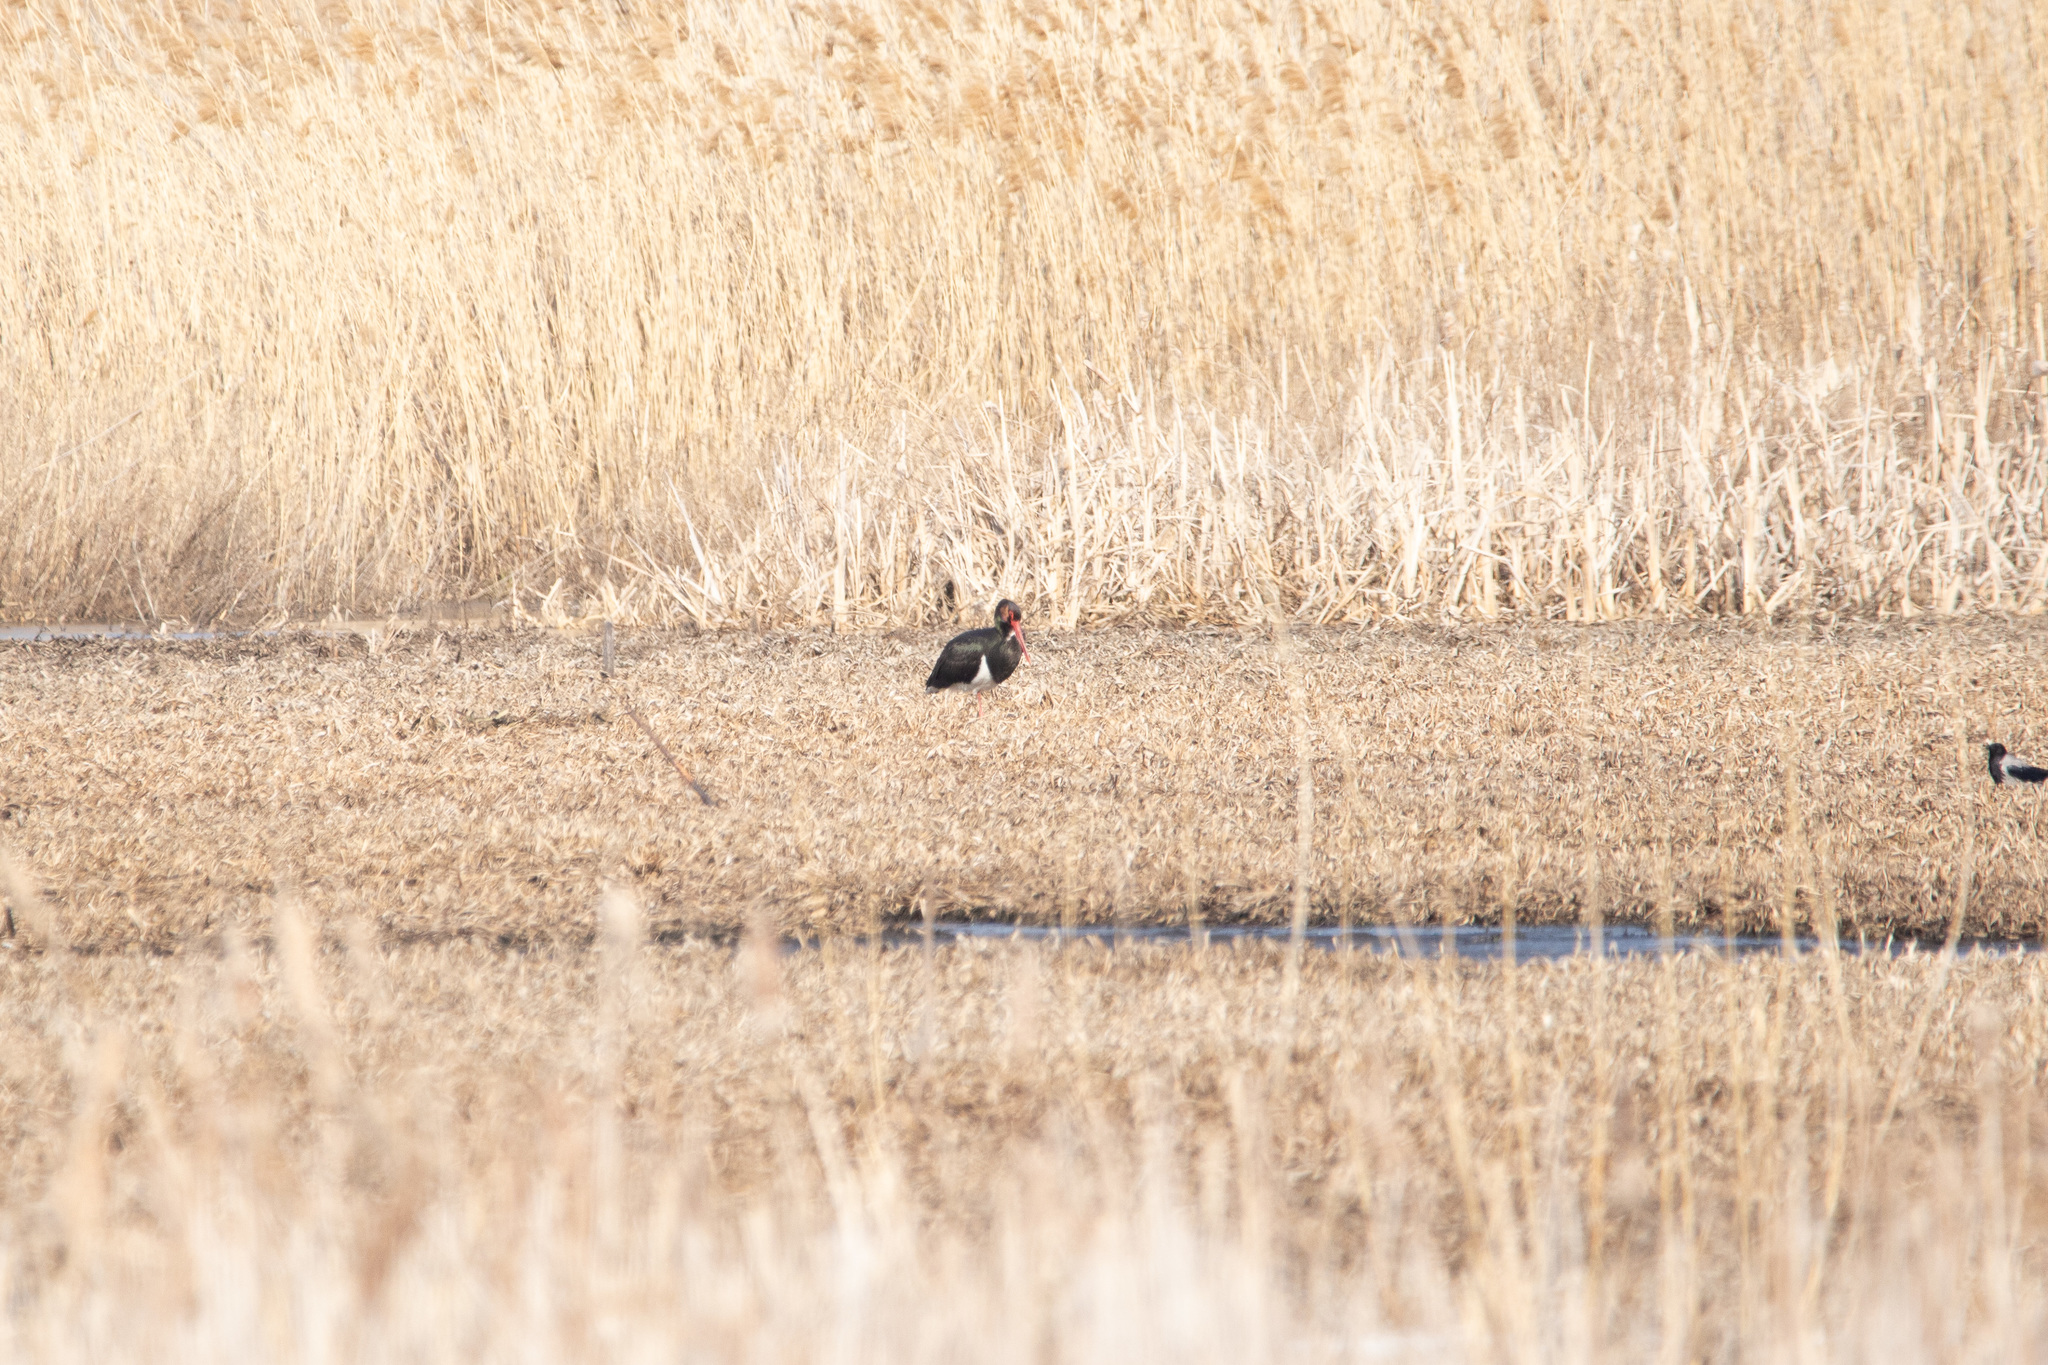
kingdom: Animalia
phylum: Chordata
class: Aves
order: Ciconiiformes
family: Ciconiidae
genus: Ciconia
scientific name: Ciconia nigra
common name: Black stork
